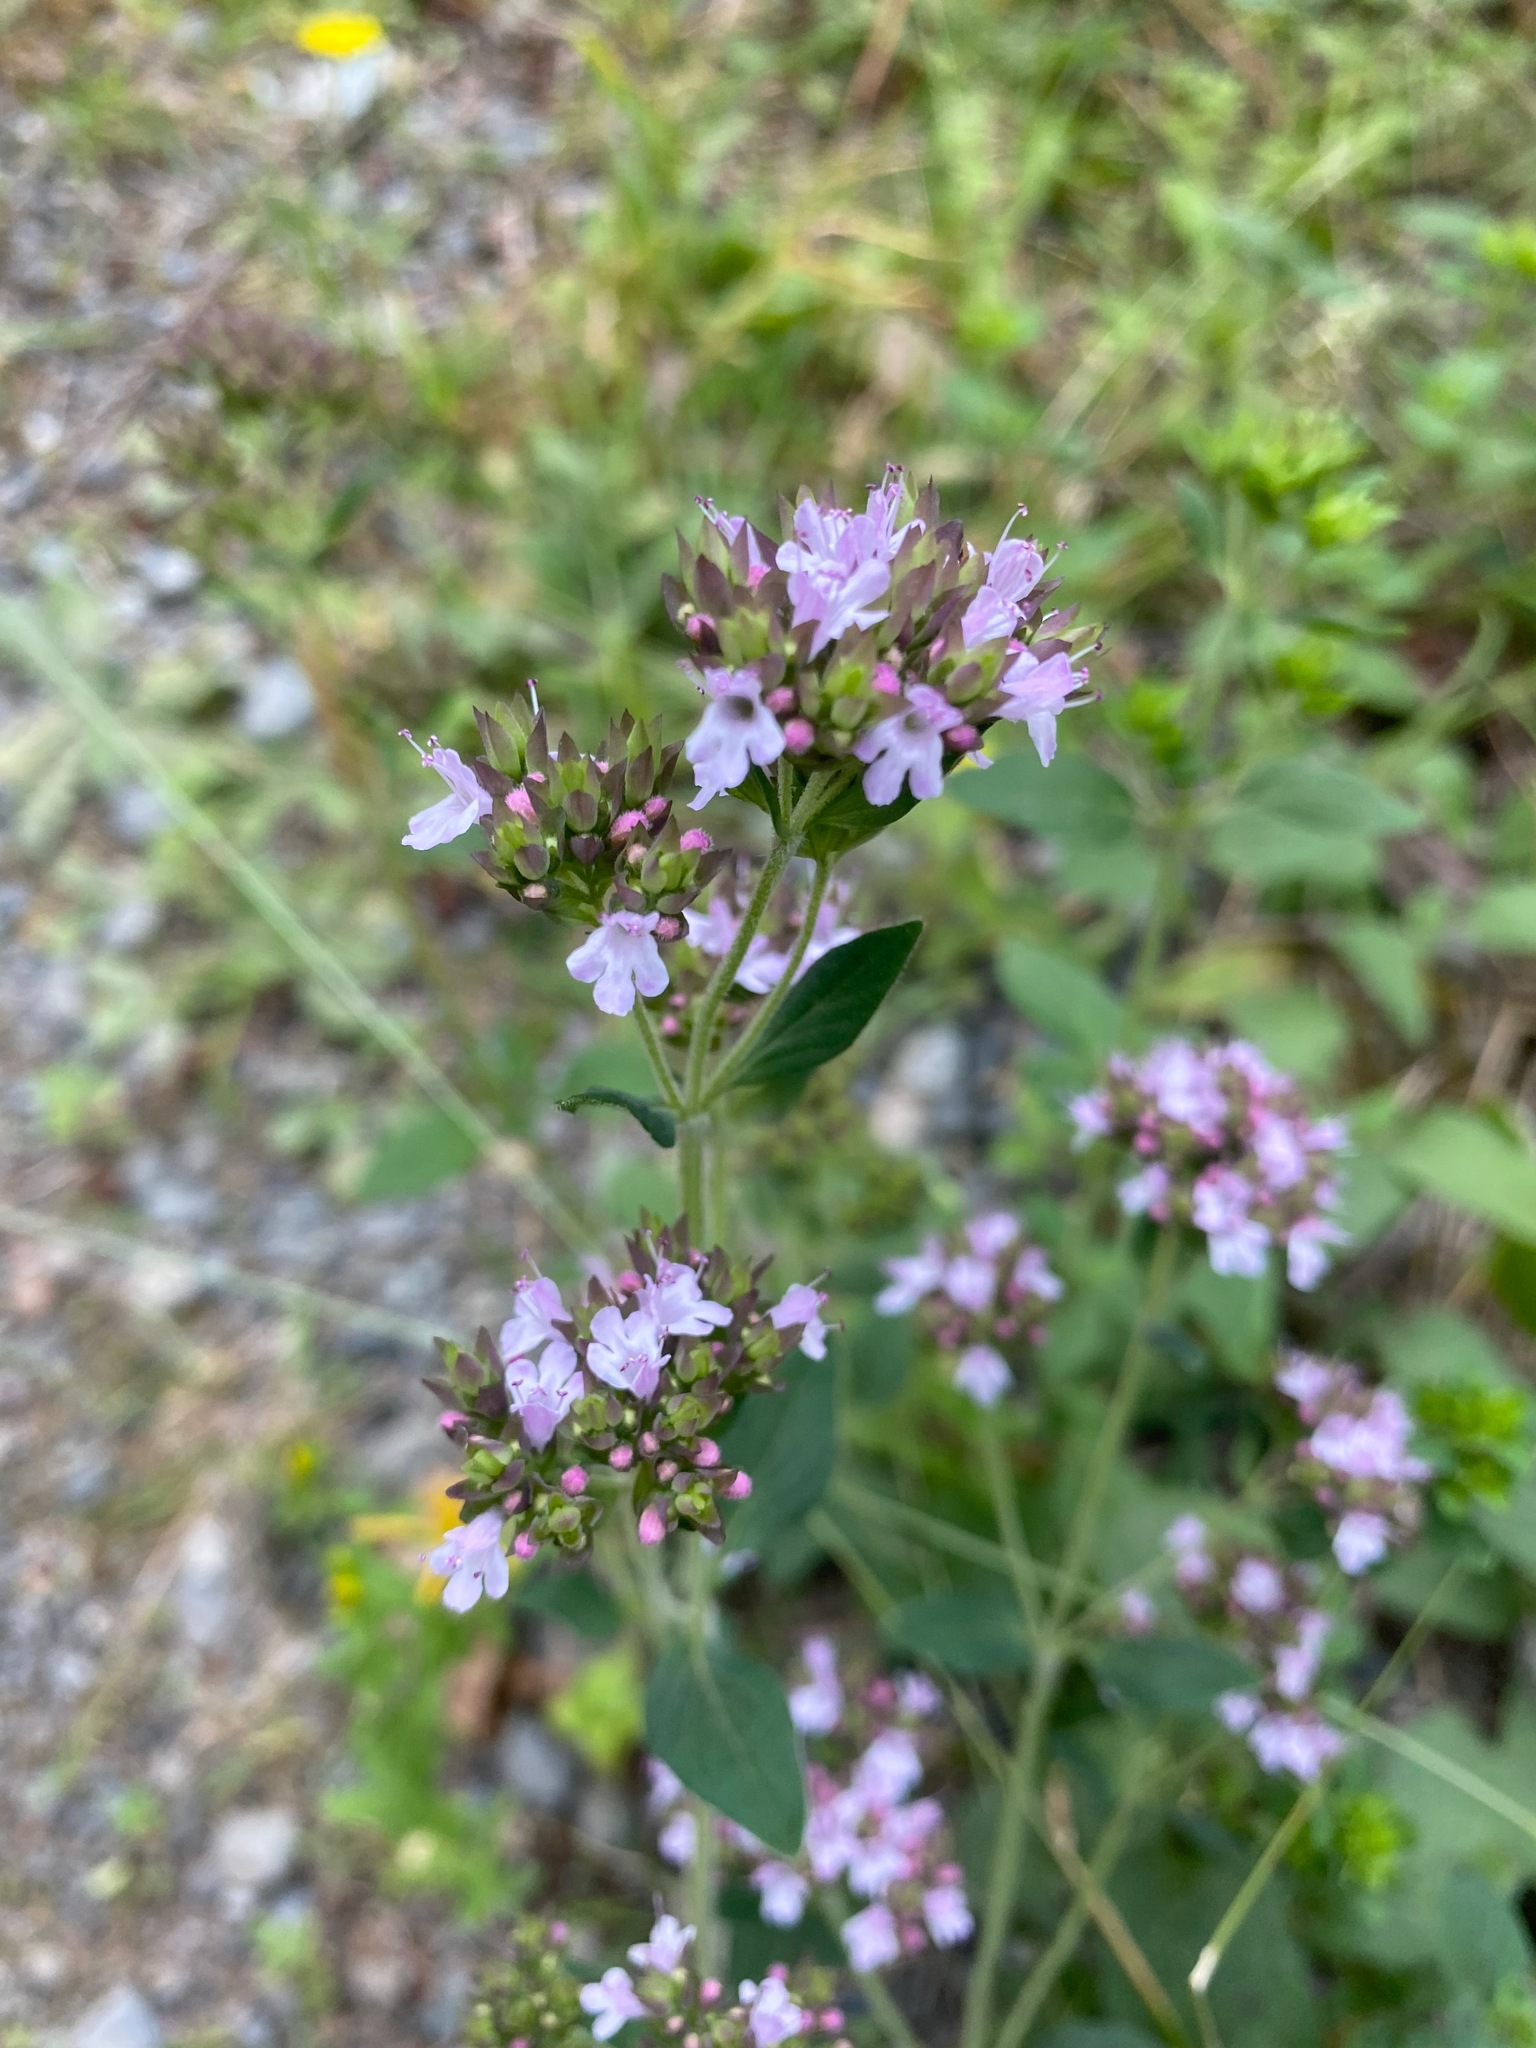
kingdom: Plantae
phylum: Tracheophyta
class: Magnoliopsida
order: Lamiales
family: Lamiaceae
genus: Origanum
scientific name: Origanum vulgare
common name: Wild marjoram
